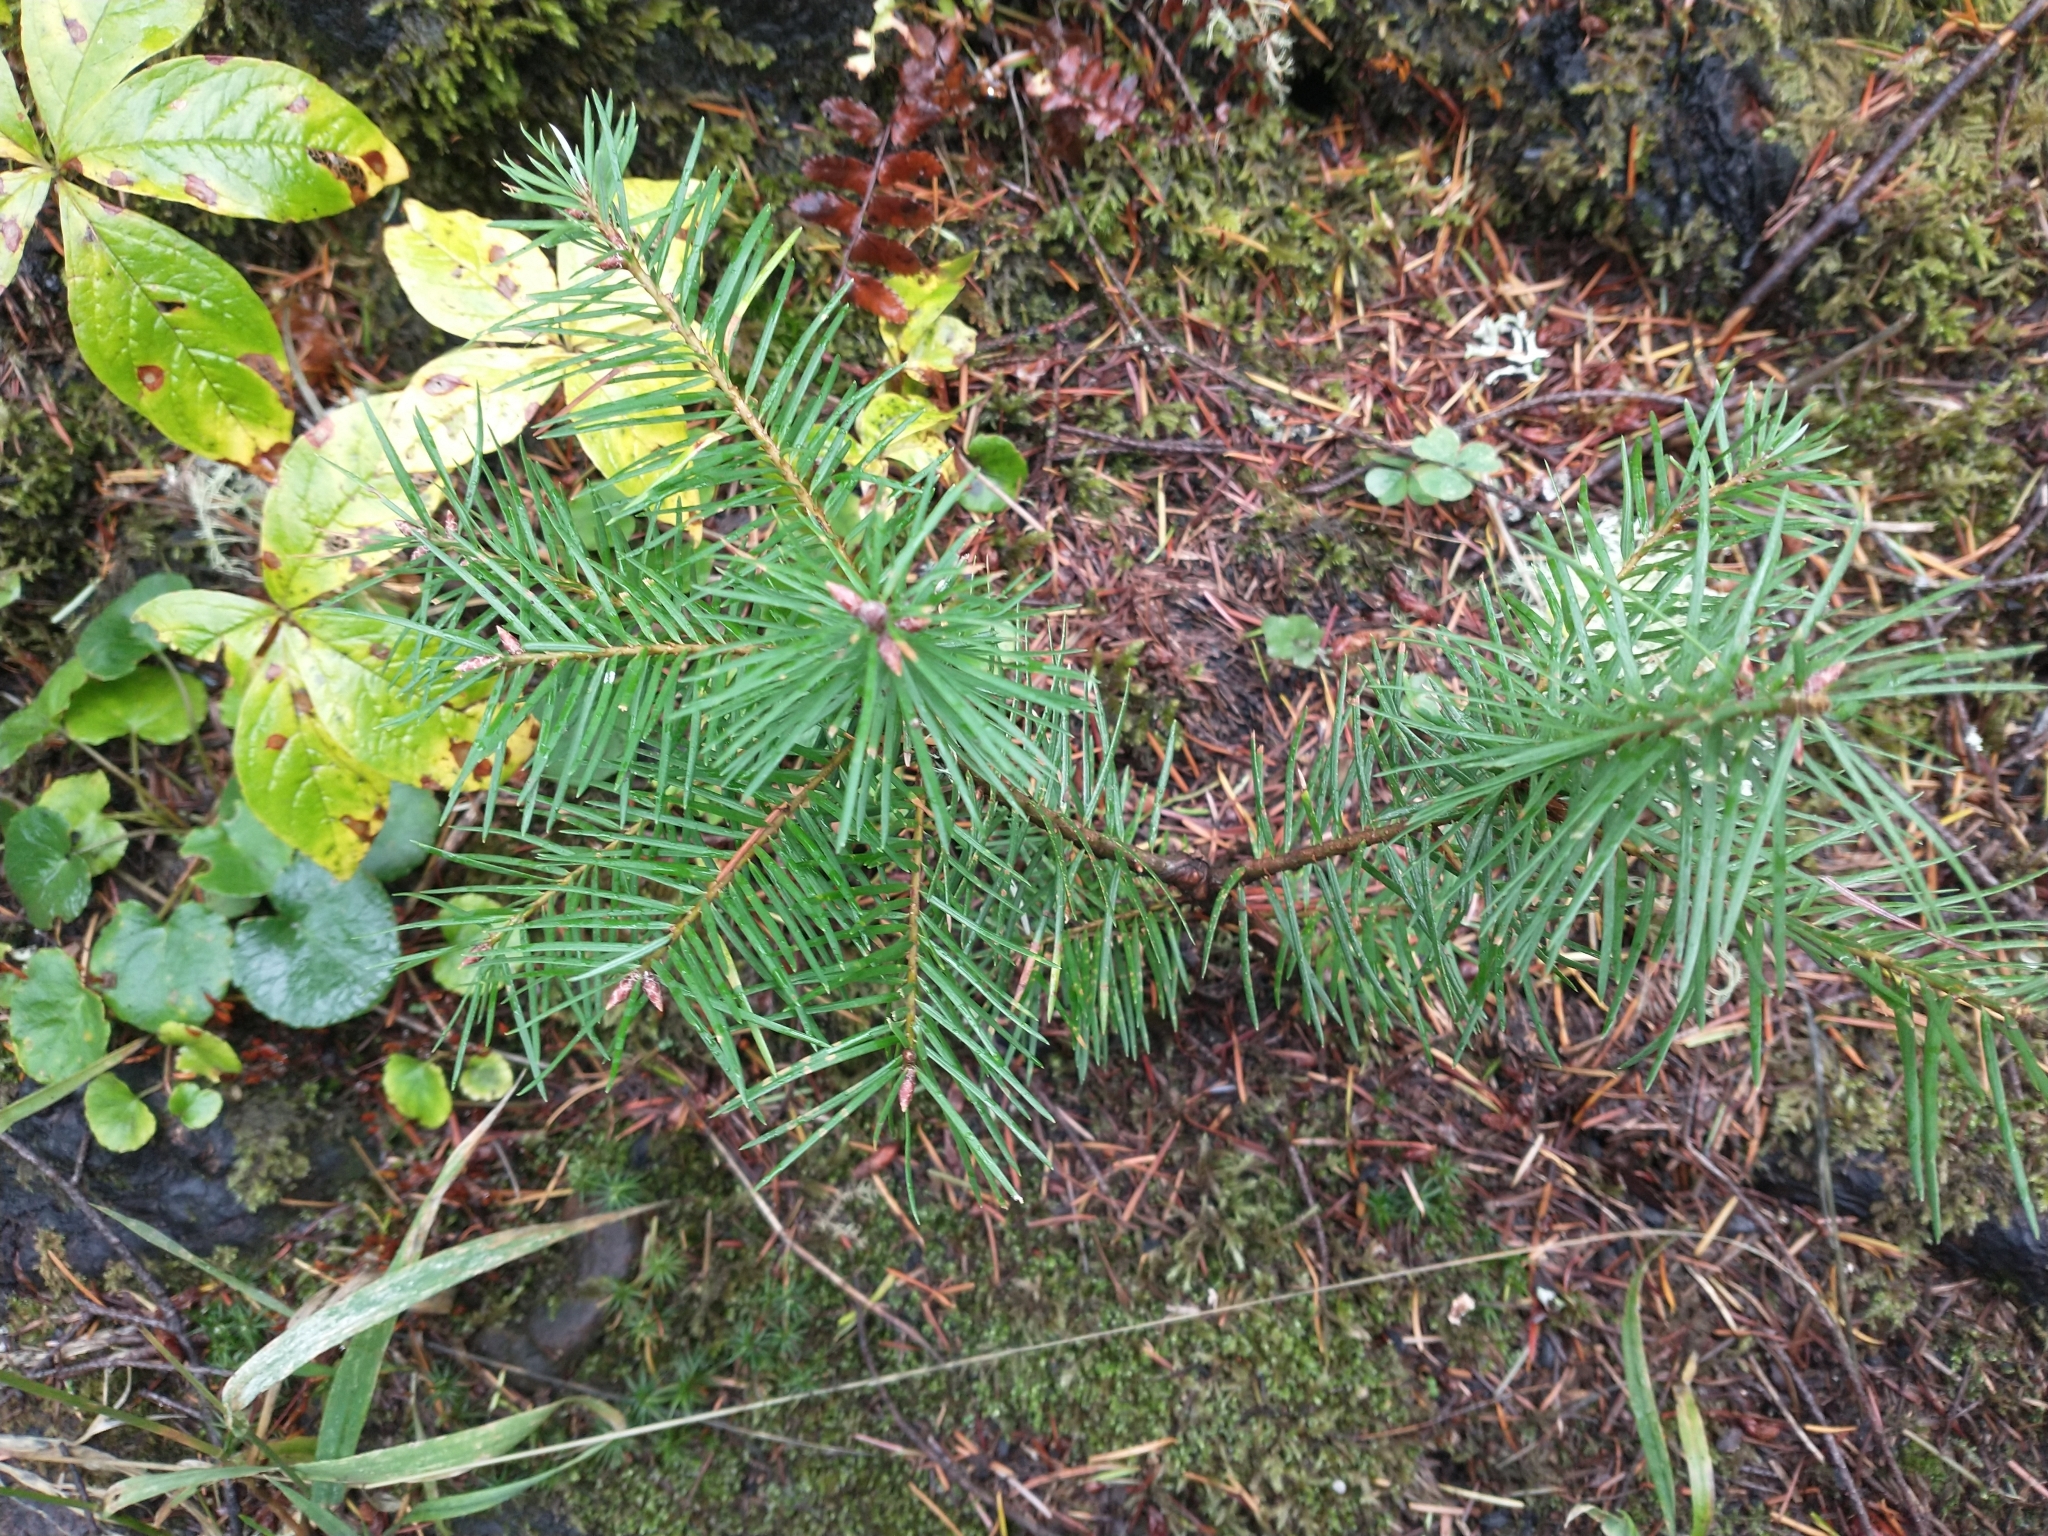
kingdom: Plantae
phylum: Tracheophyta
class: Pinopsida
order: Pinales
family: Pinaceae
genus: Pseudotsuga
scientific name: Pseudotsuga menziesii
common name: Douglas fir
